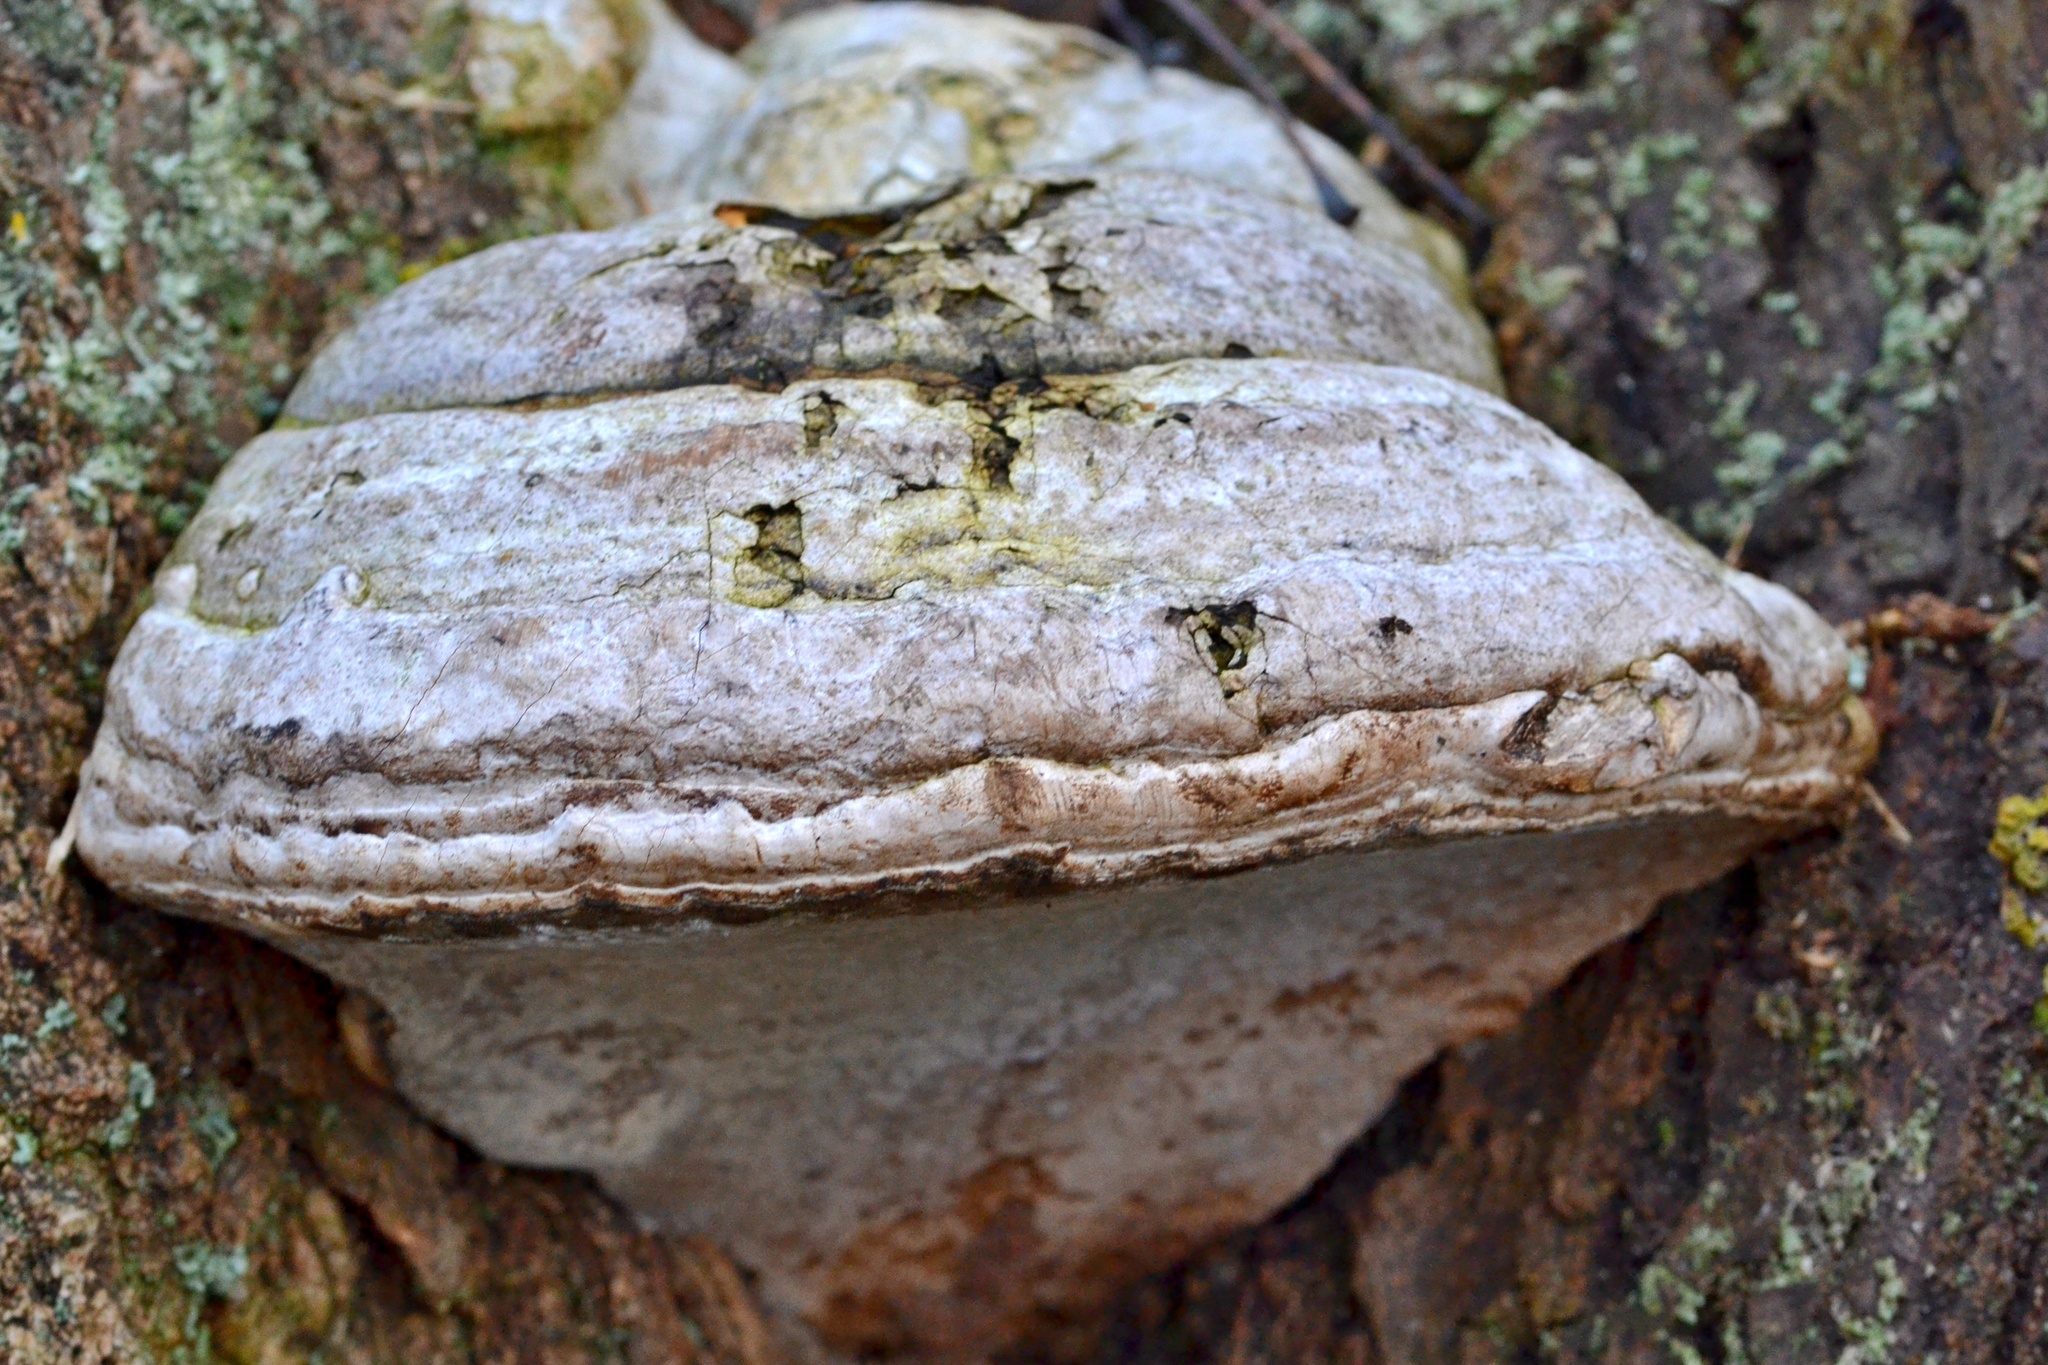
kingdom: Fungi
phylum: Basidiomycota
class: Agaricomycetes
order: Polyporales
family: Polyporaceae
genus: Fomes
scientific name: Fomes fomentarius
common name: Hoof fungus
